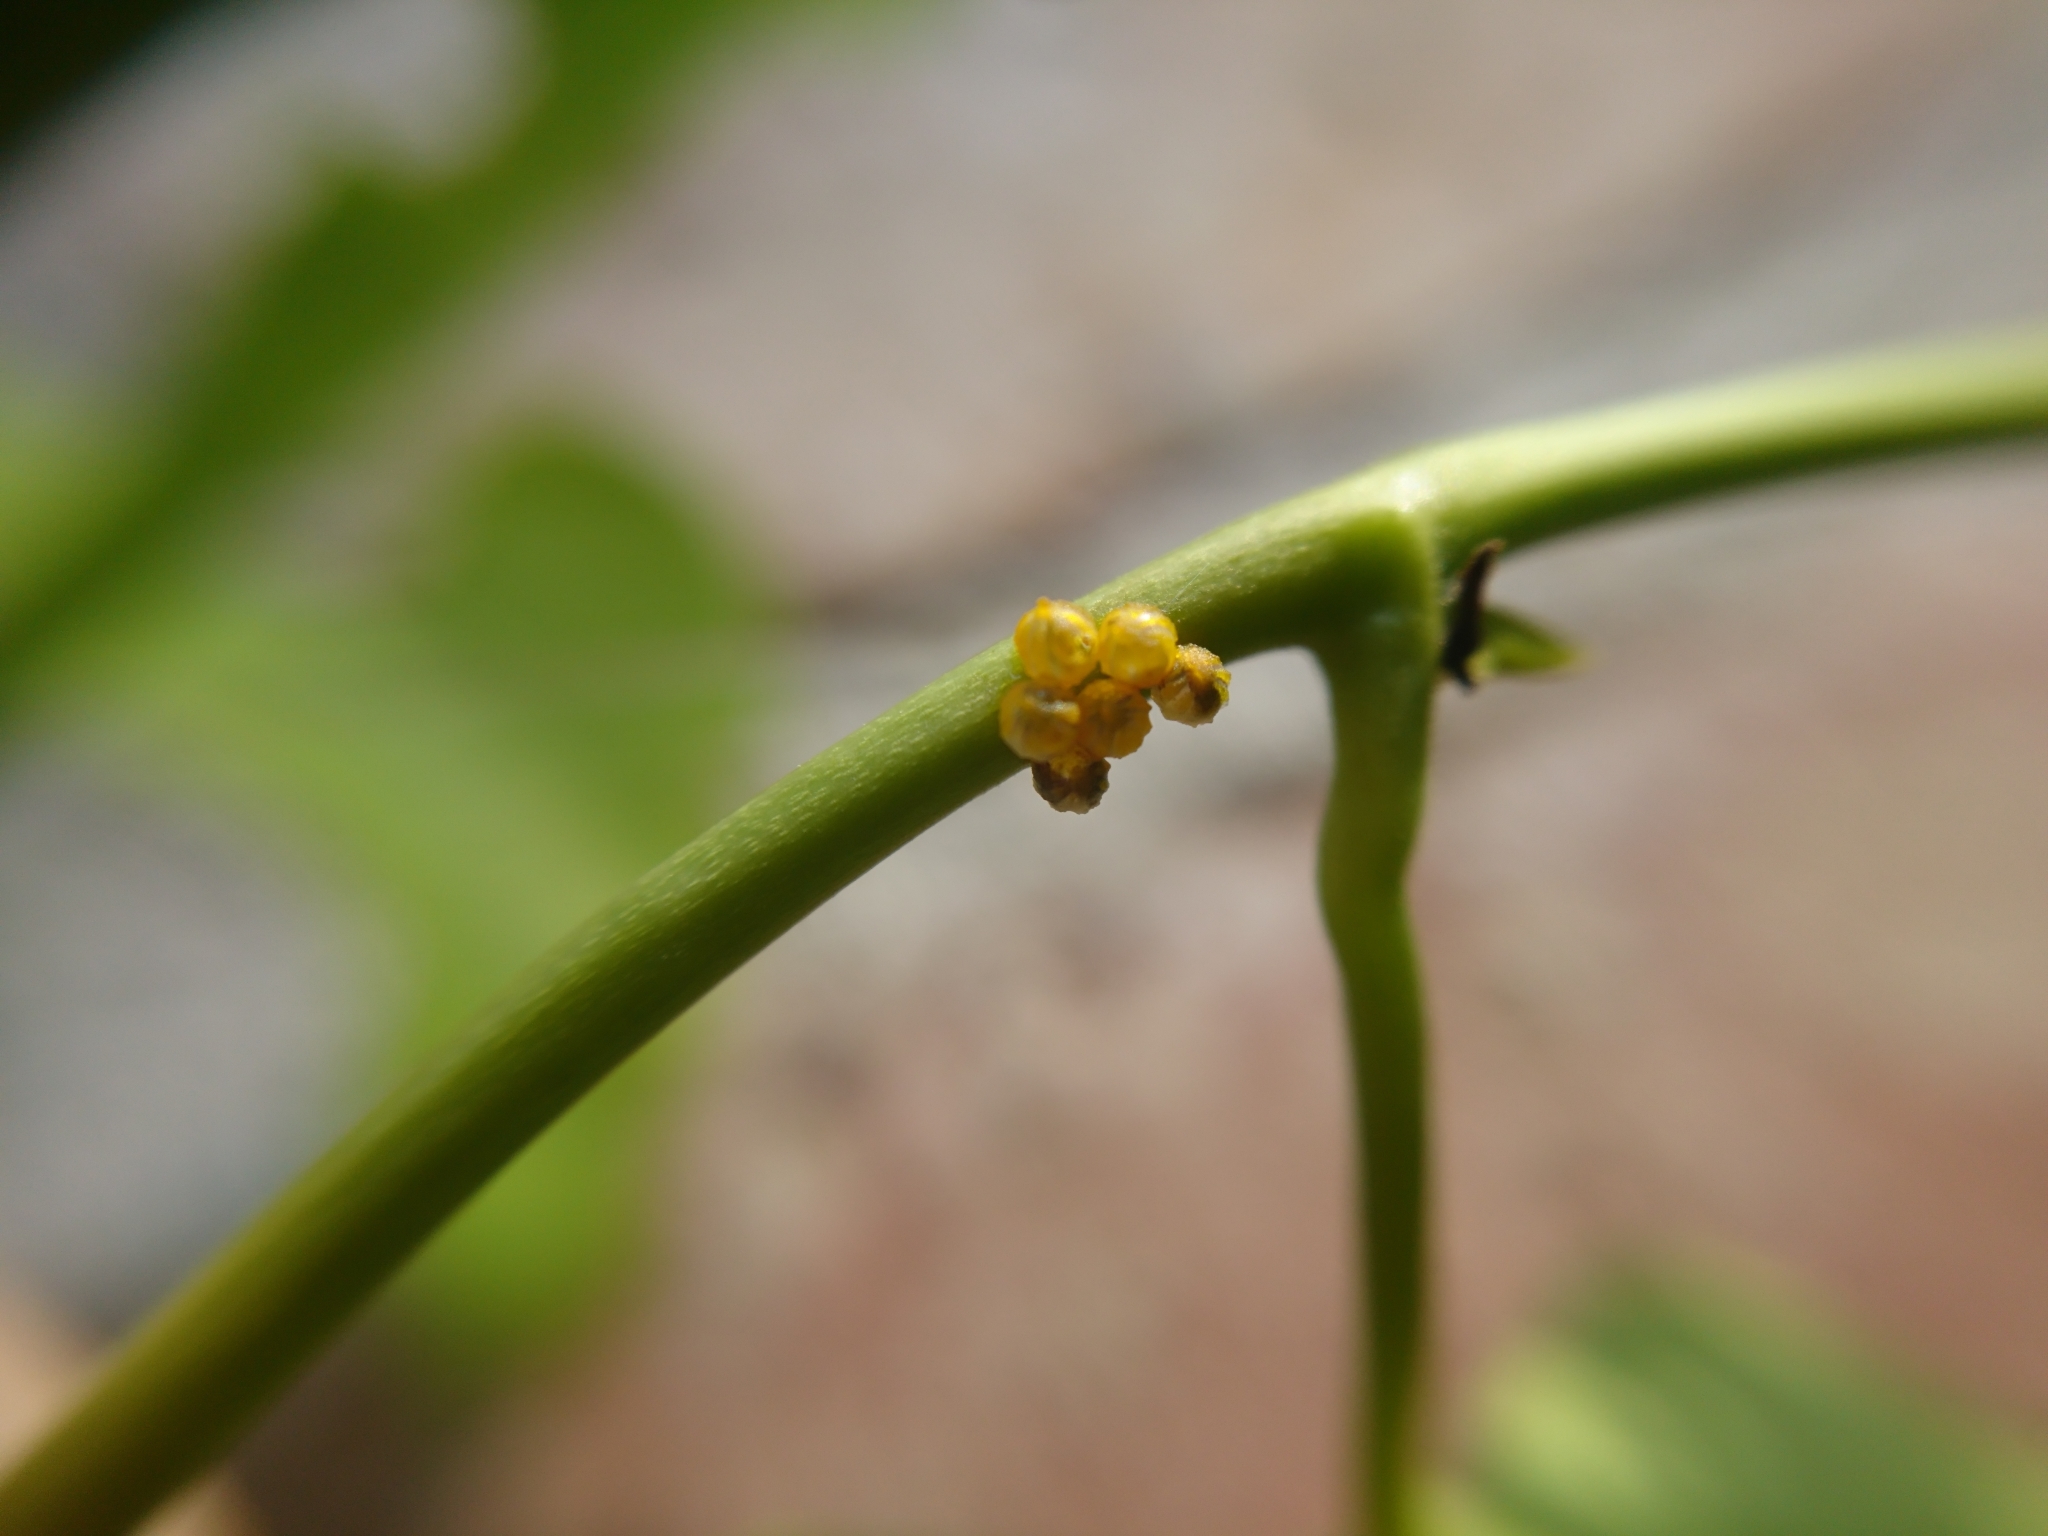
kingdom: Animalia
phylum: Arthropoda
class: Insecta
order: Lepidoptera
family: Papilionidae
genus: Battus
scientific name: Battus polydamas
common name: Polydamas swallowtail
